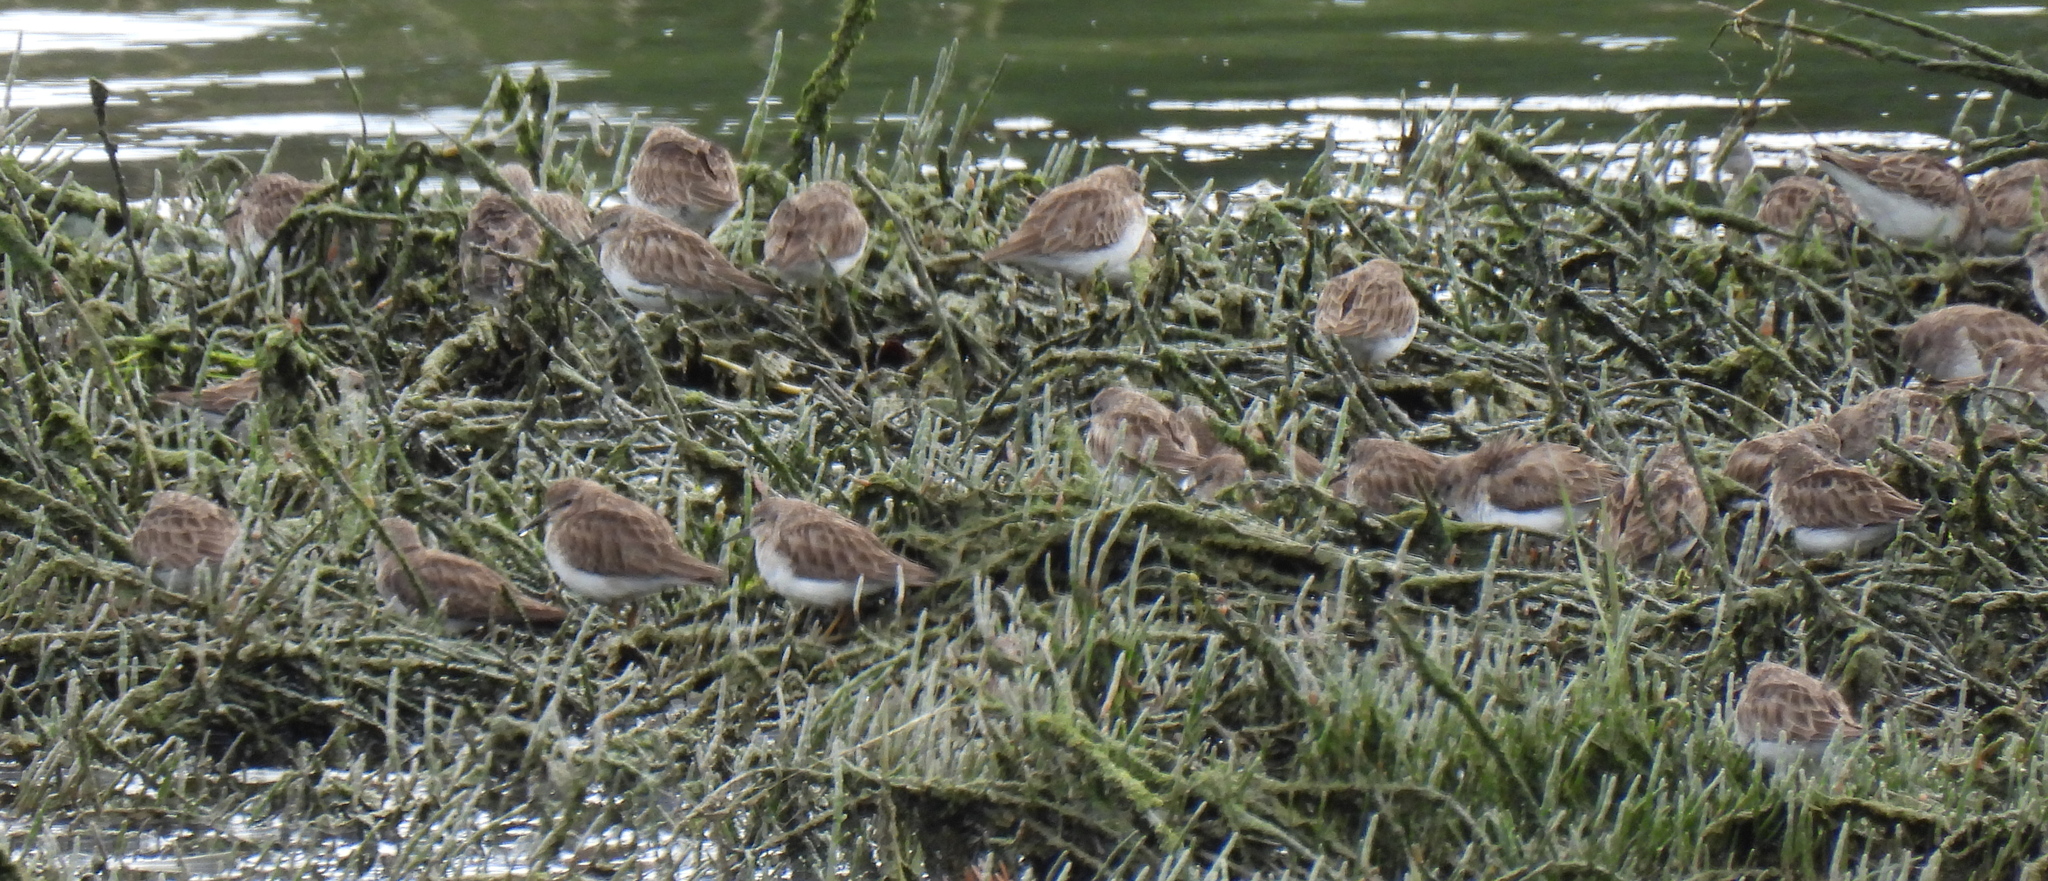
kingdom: Animalia
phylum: Chordata
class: Aves
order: Charadriiformes
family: Scolopacidae
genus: Calidris
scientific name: Calidris minutilla
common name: Least sandpiper
